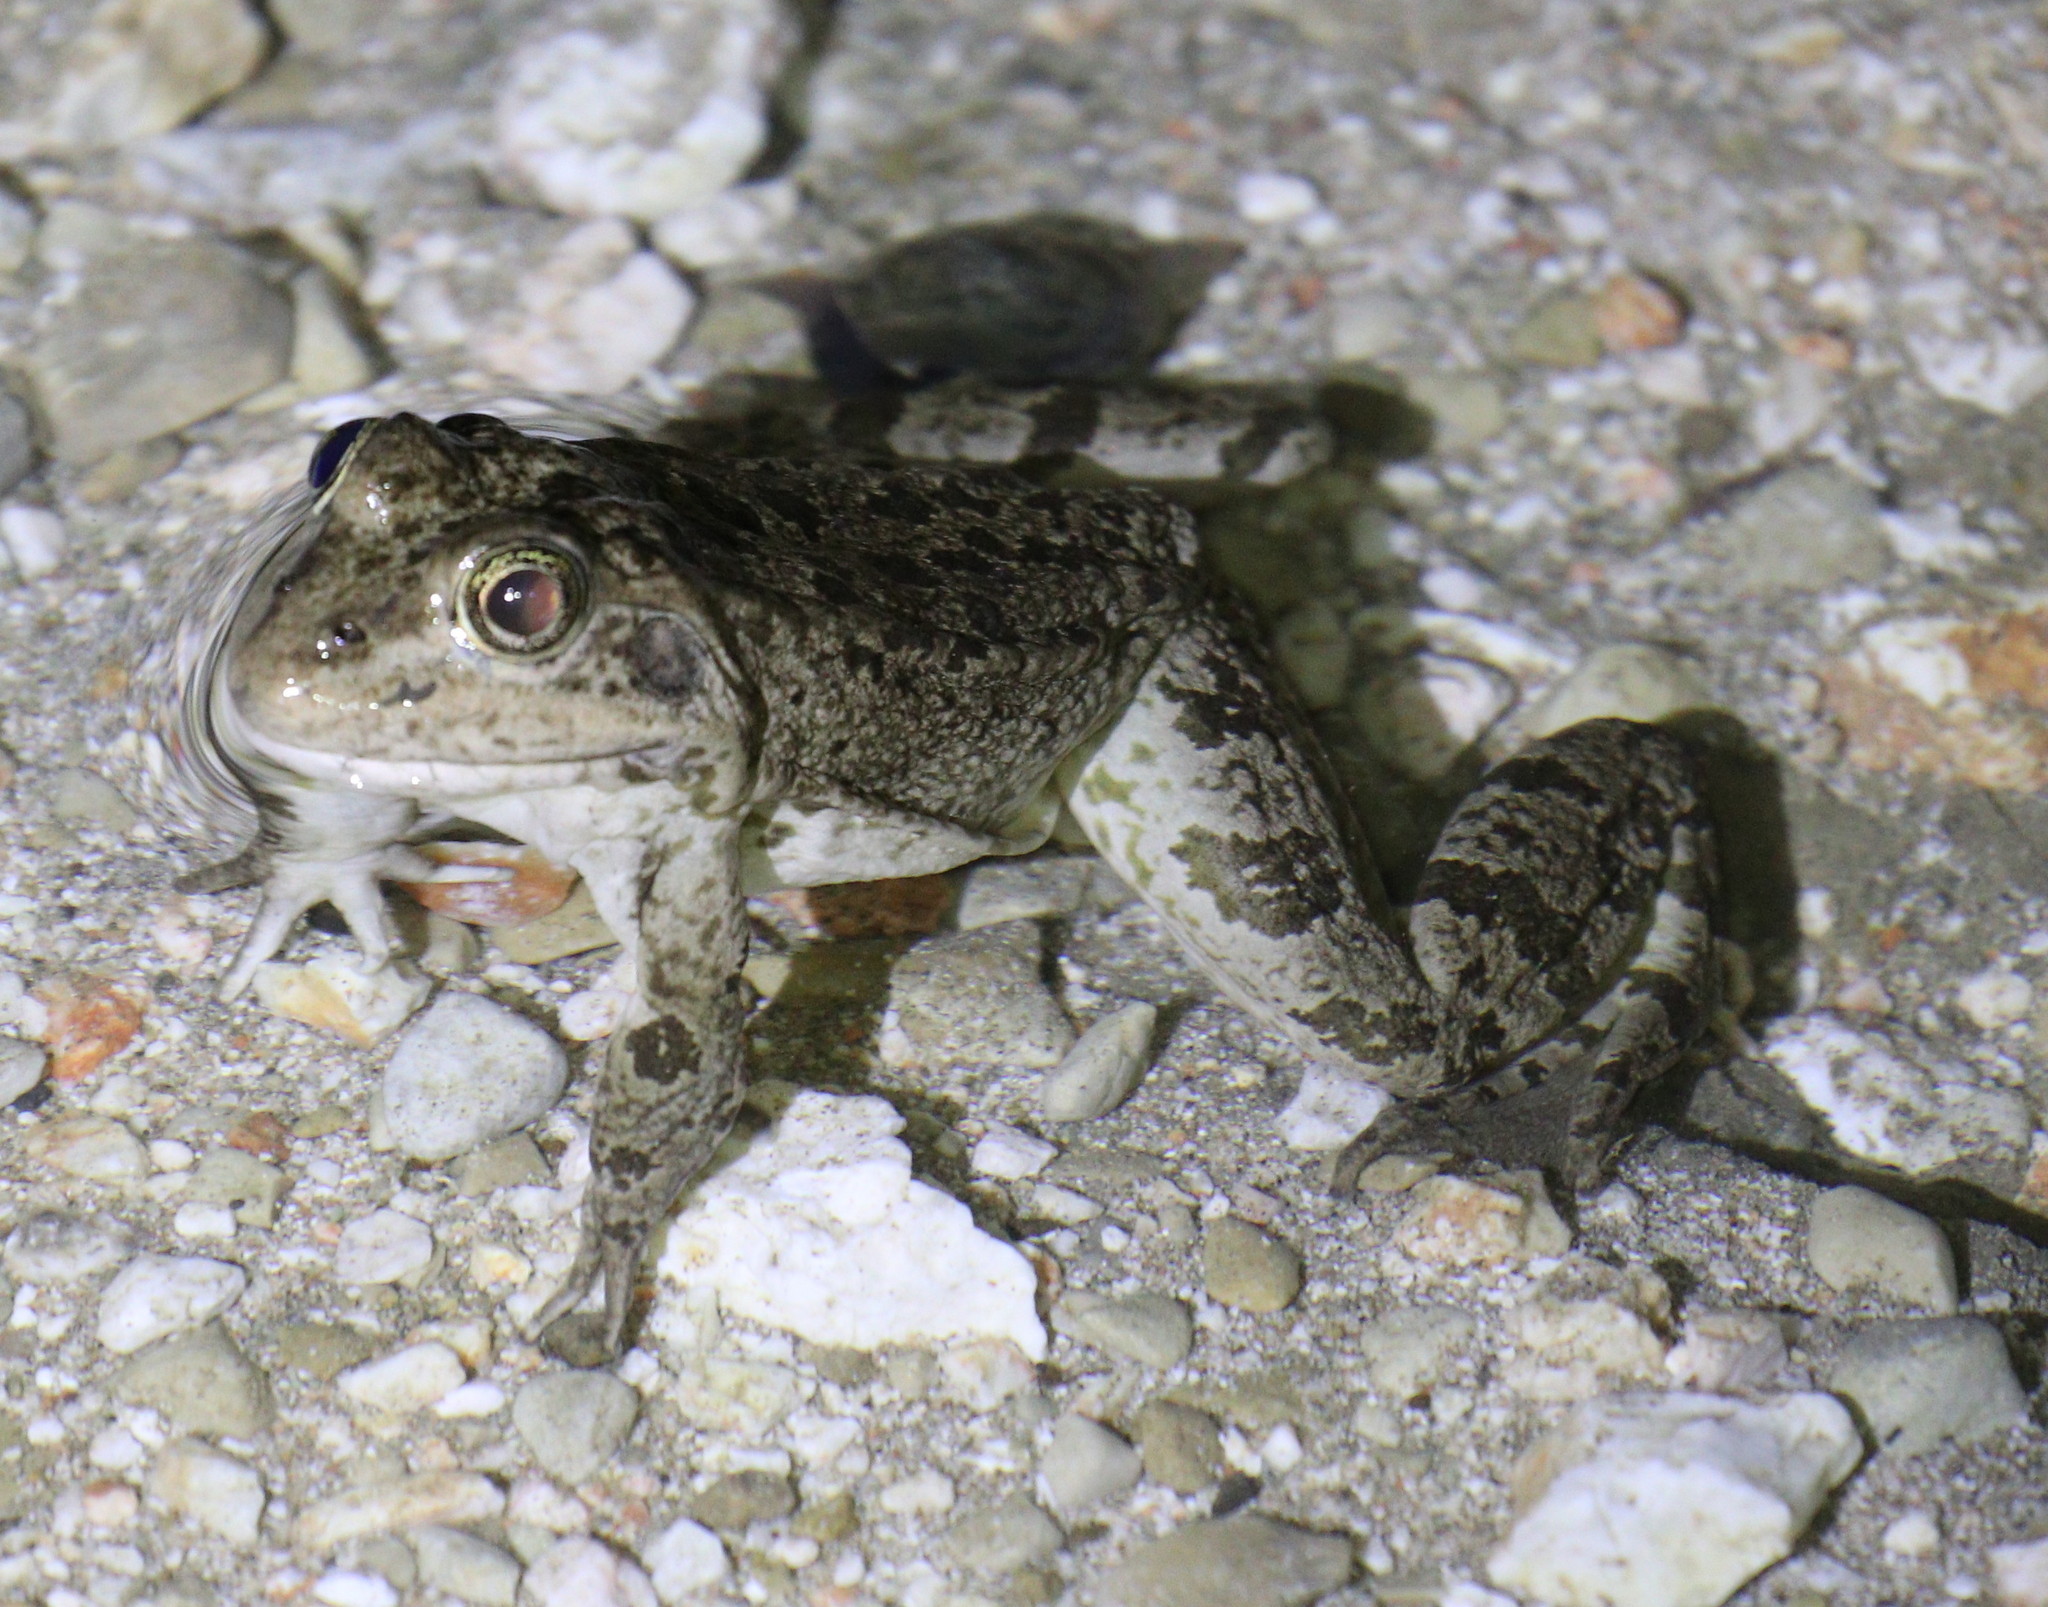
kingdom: Animalia
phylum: Chordata
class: Amphibia
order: Anura
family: Ranidae
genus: Pelophylax
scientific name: Pelophylax ridibundus
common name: Marsh frog
